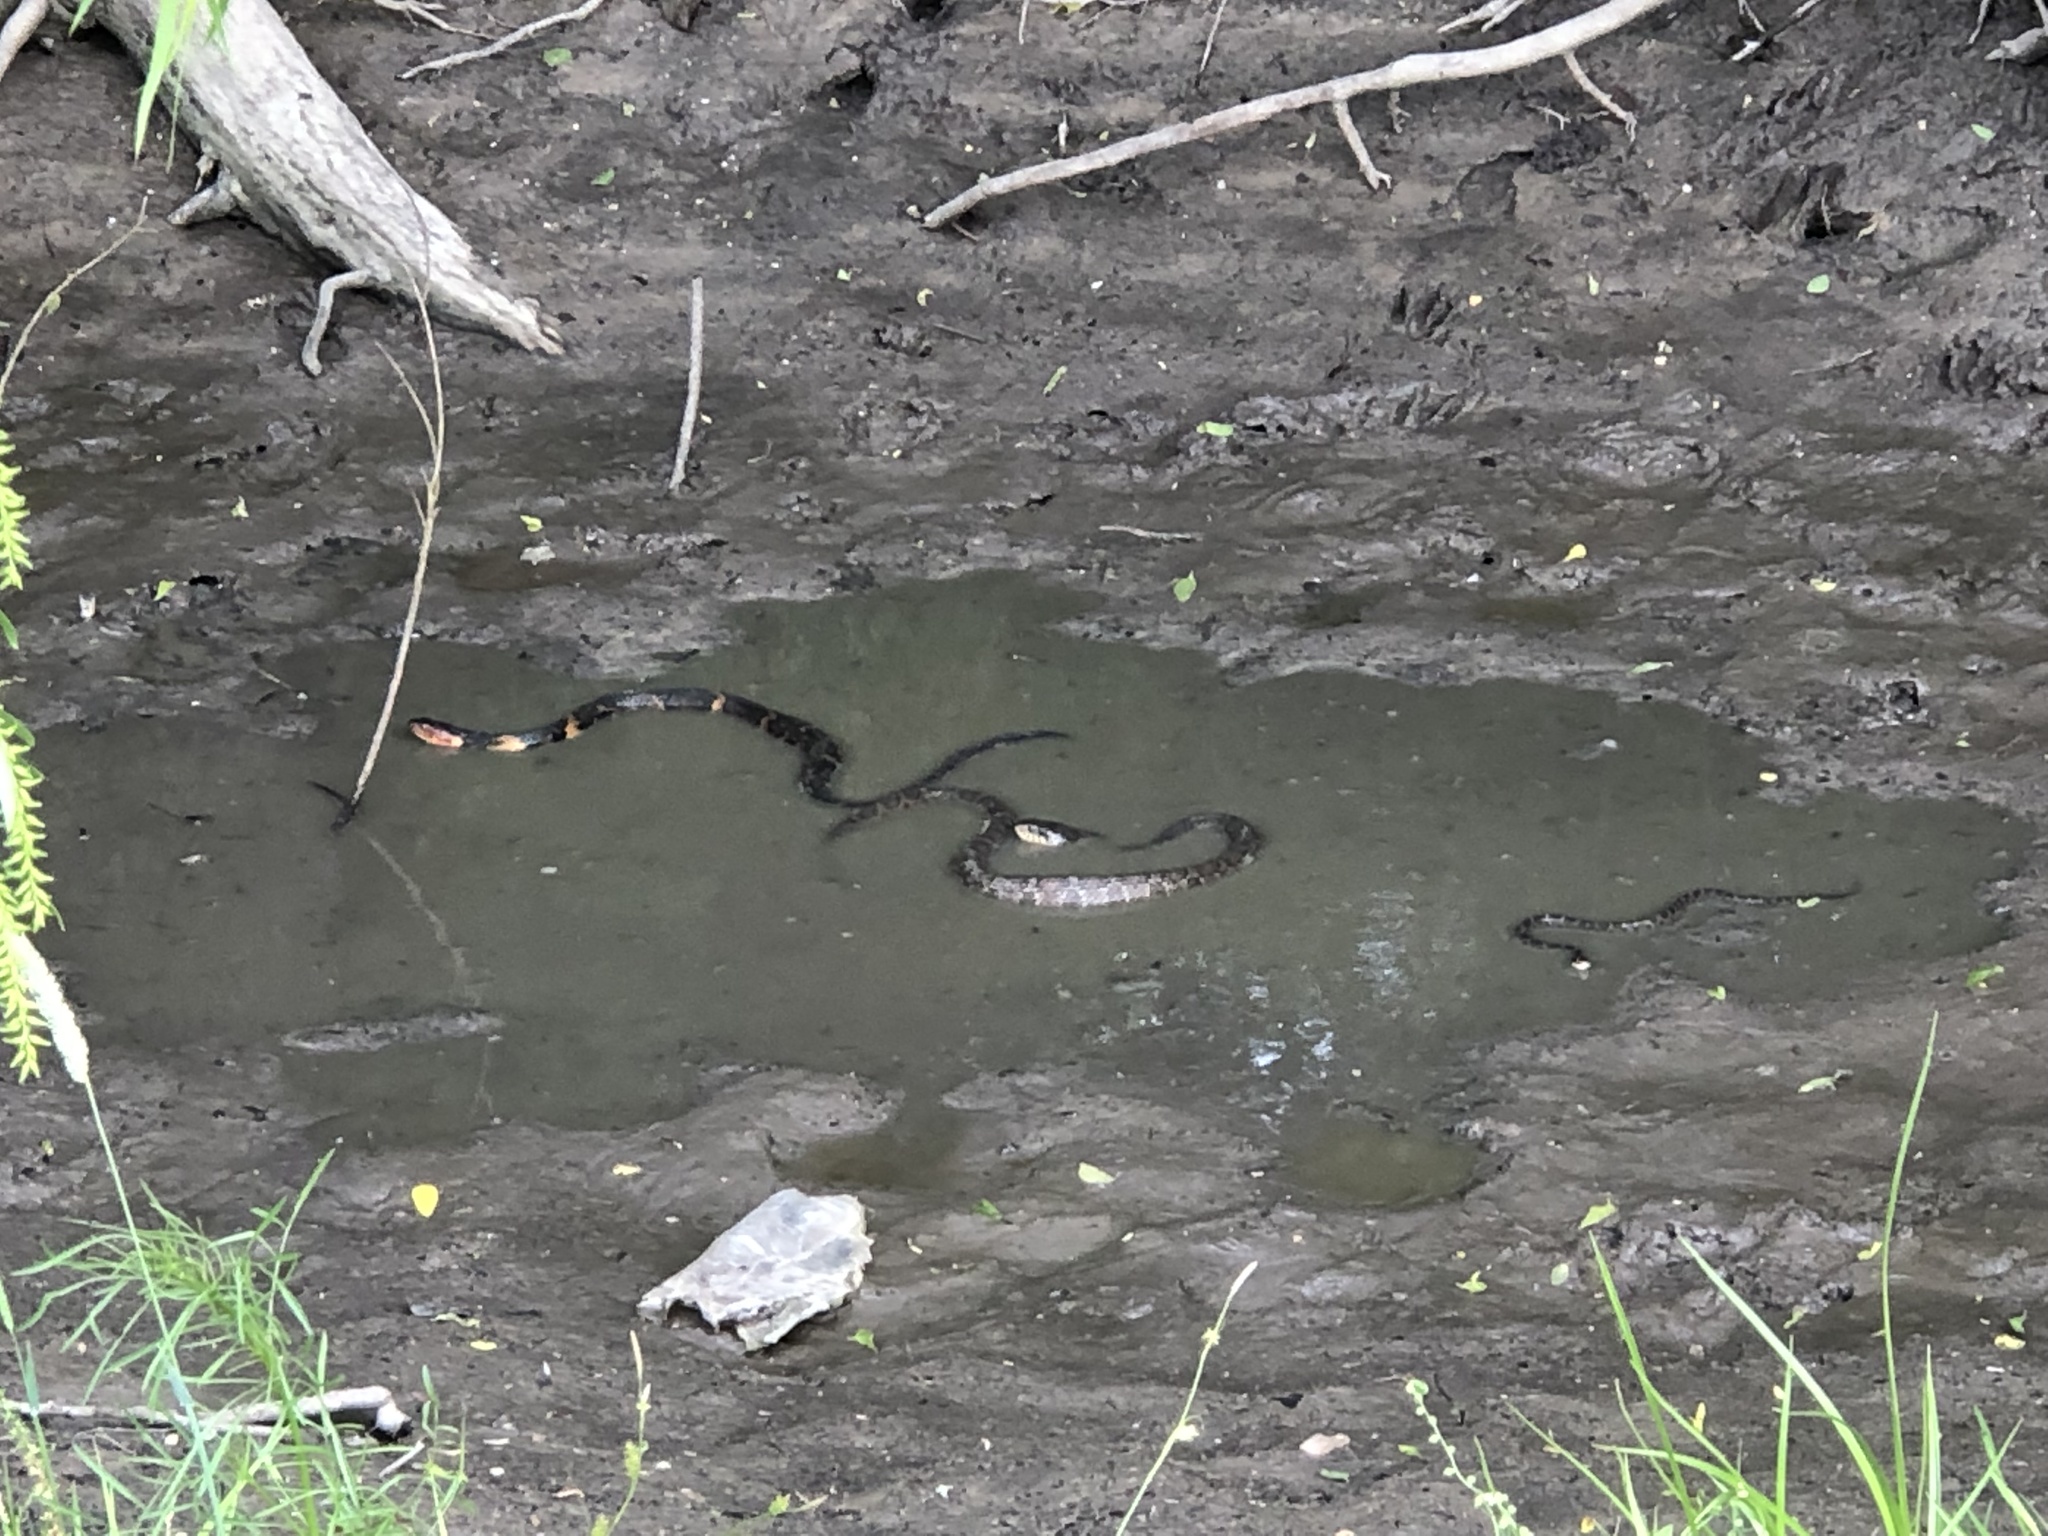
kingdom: Animalia
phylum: Chordata
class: Squamata
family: Colubridae
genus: Nerodia
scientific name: Nerodia erythrogaster
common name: Plainbelly water snake
